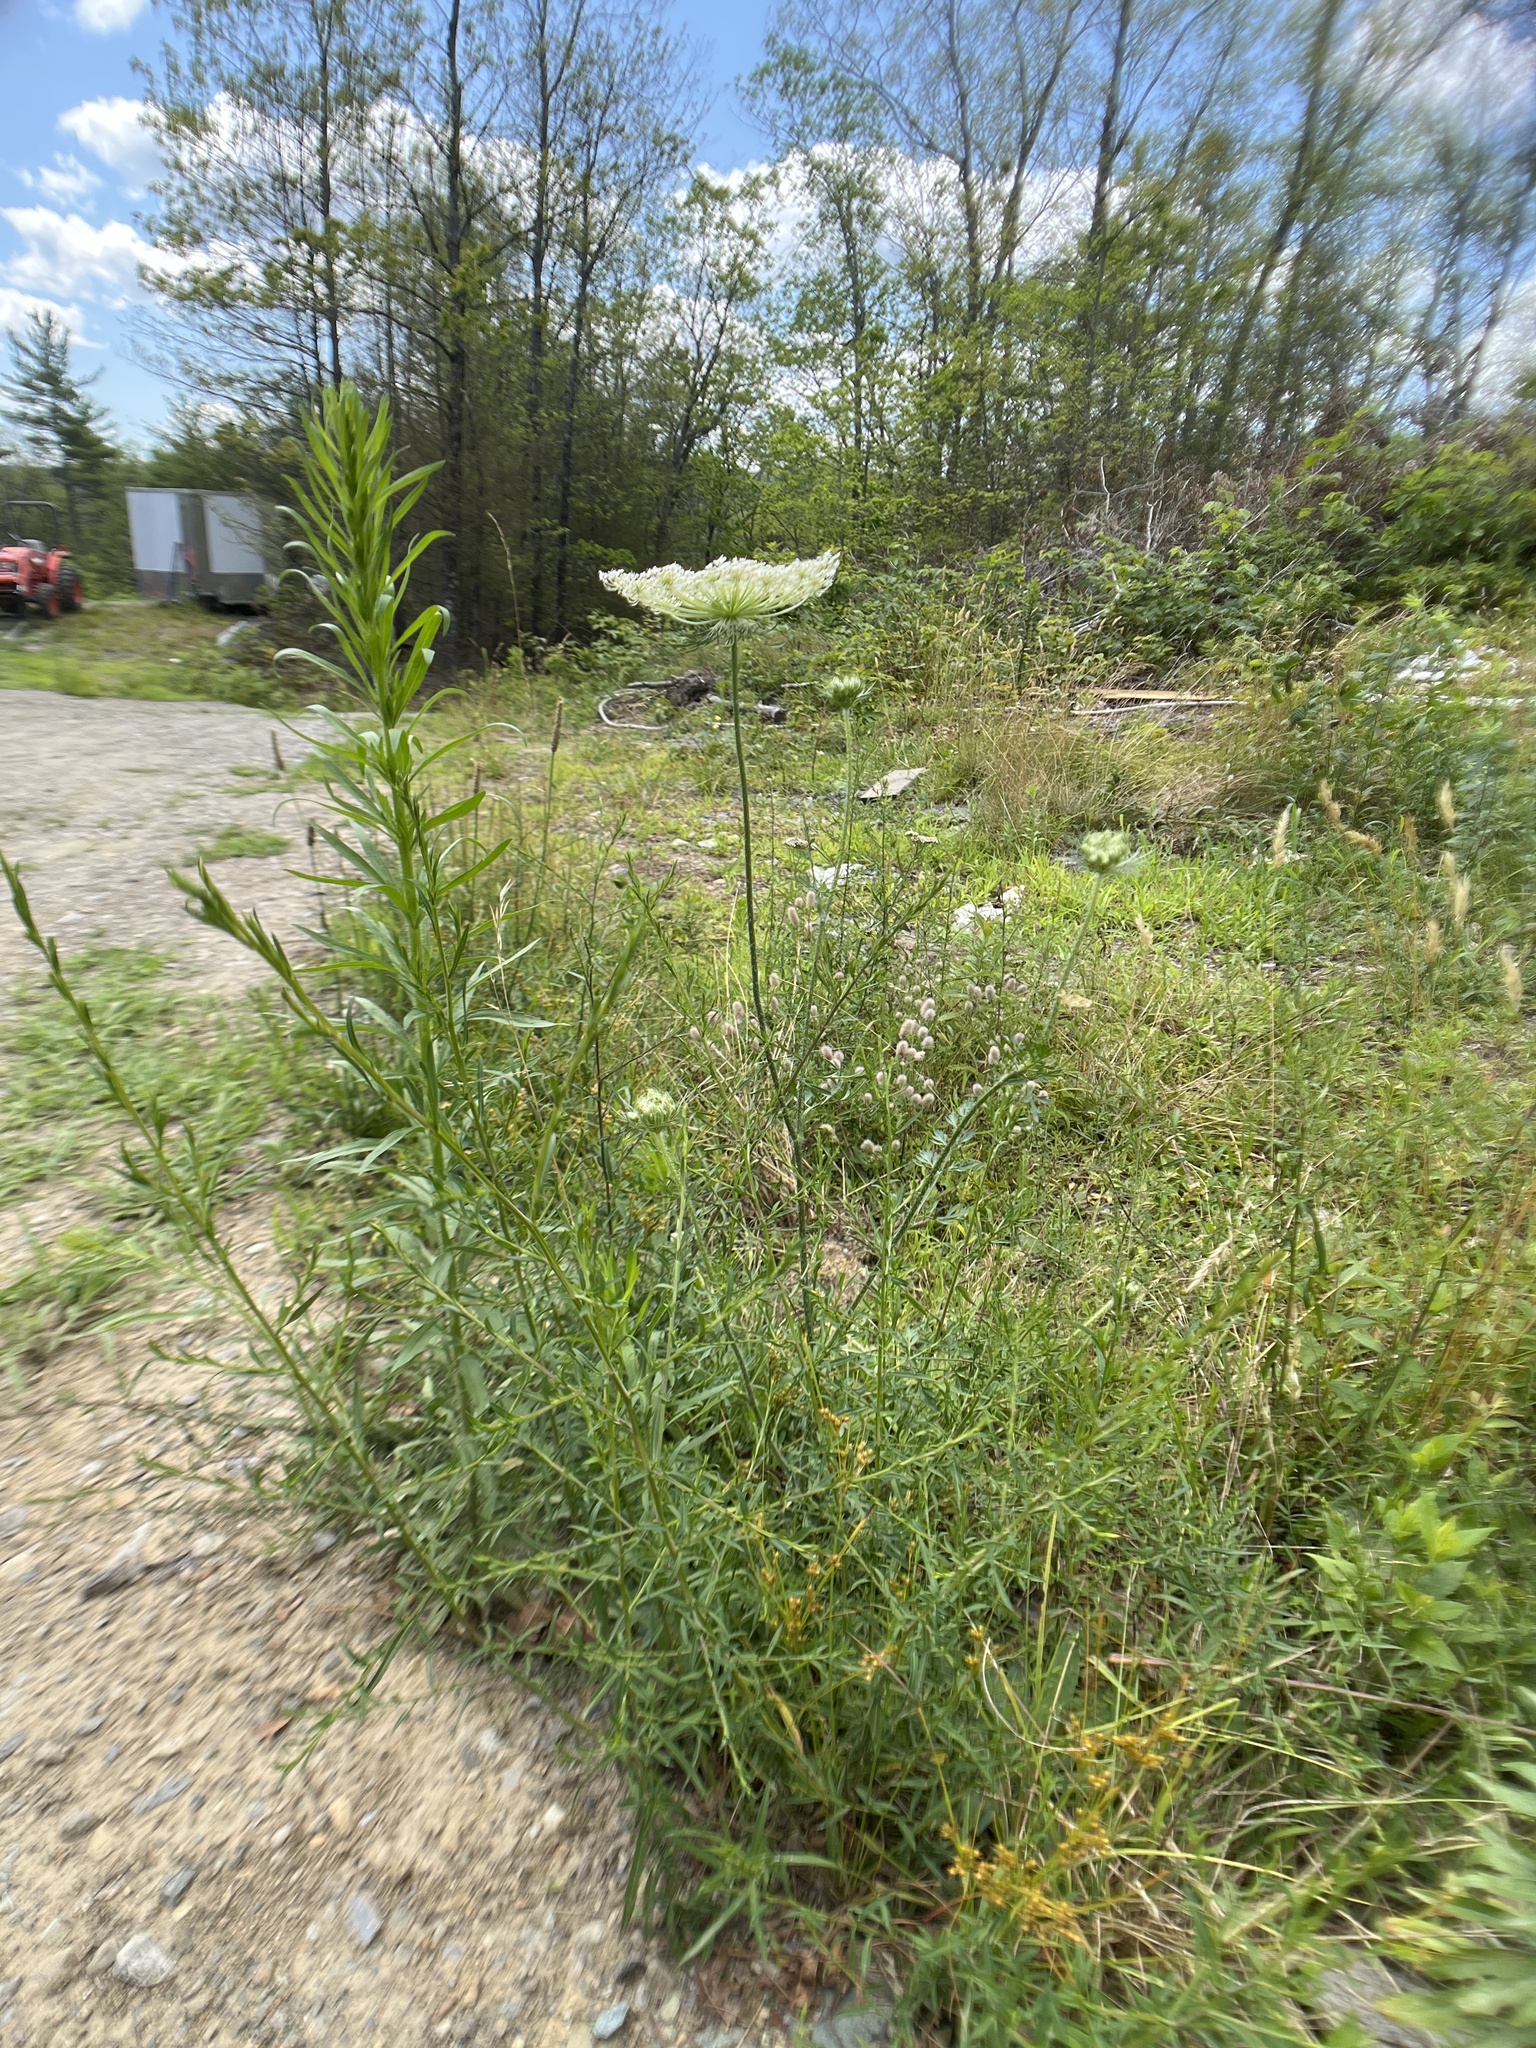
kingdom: Plantae
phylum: Tracheophyta
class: Magnoliopsida
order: Apiales
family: Apiaceae
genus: Daucus
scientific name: Daucus carota
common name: Wild carrot
